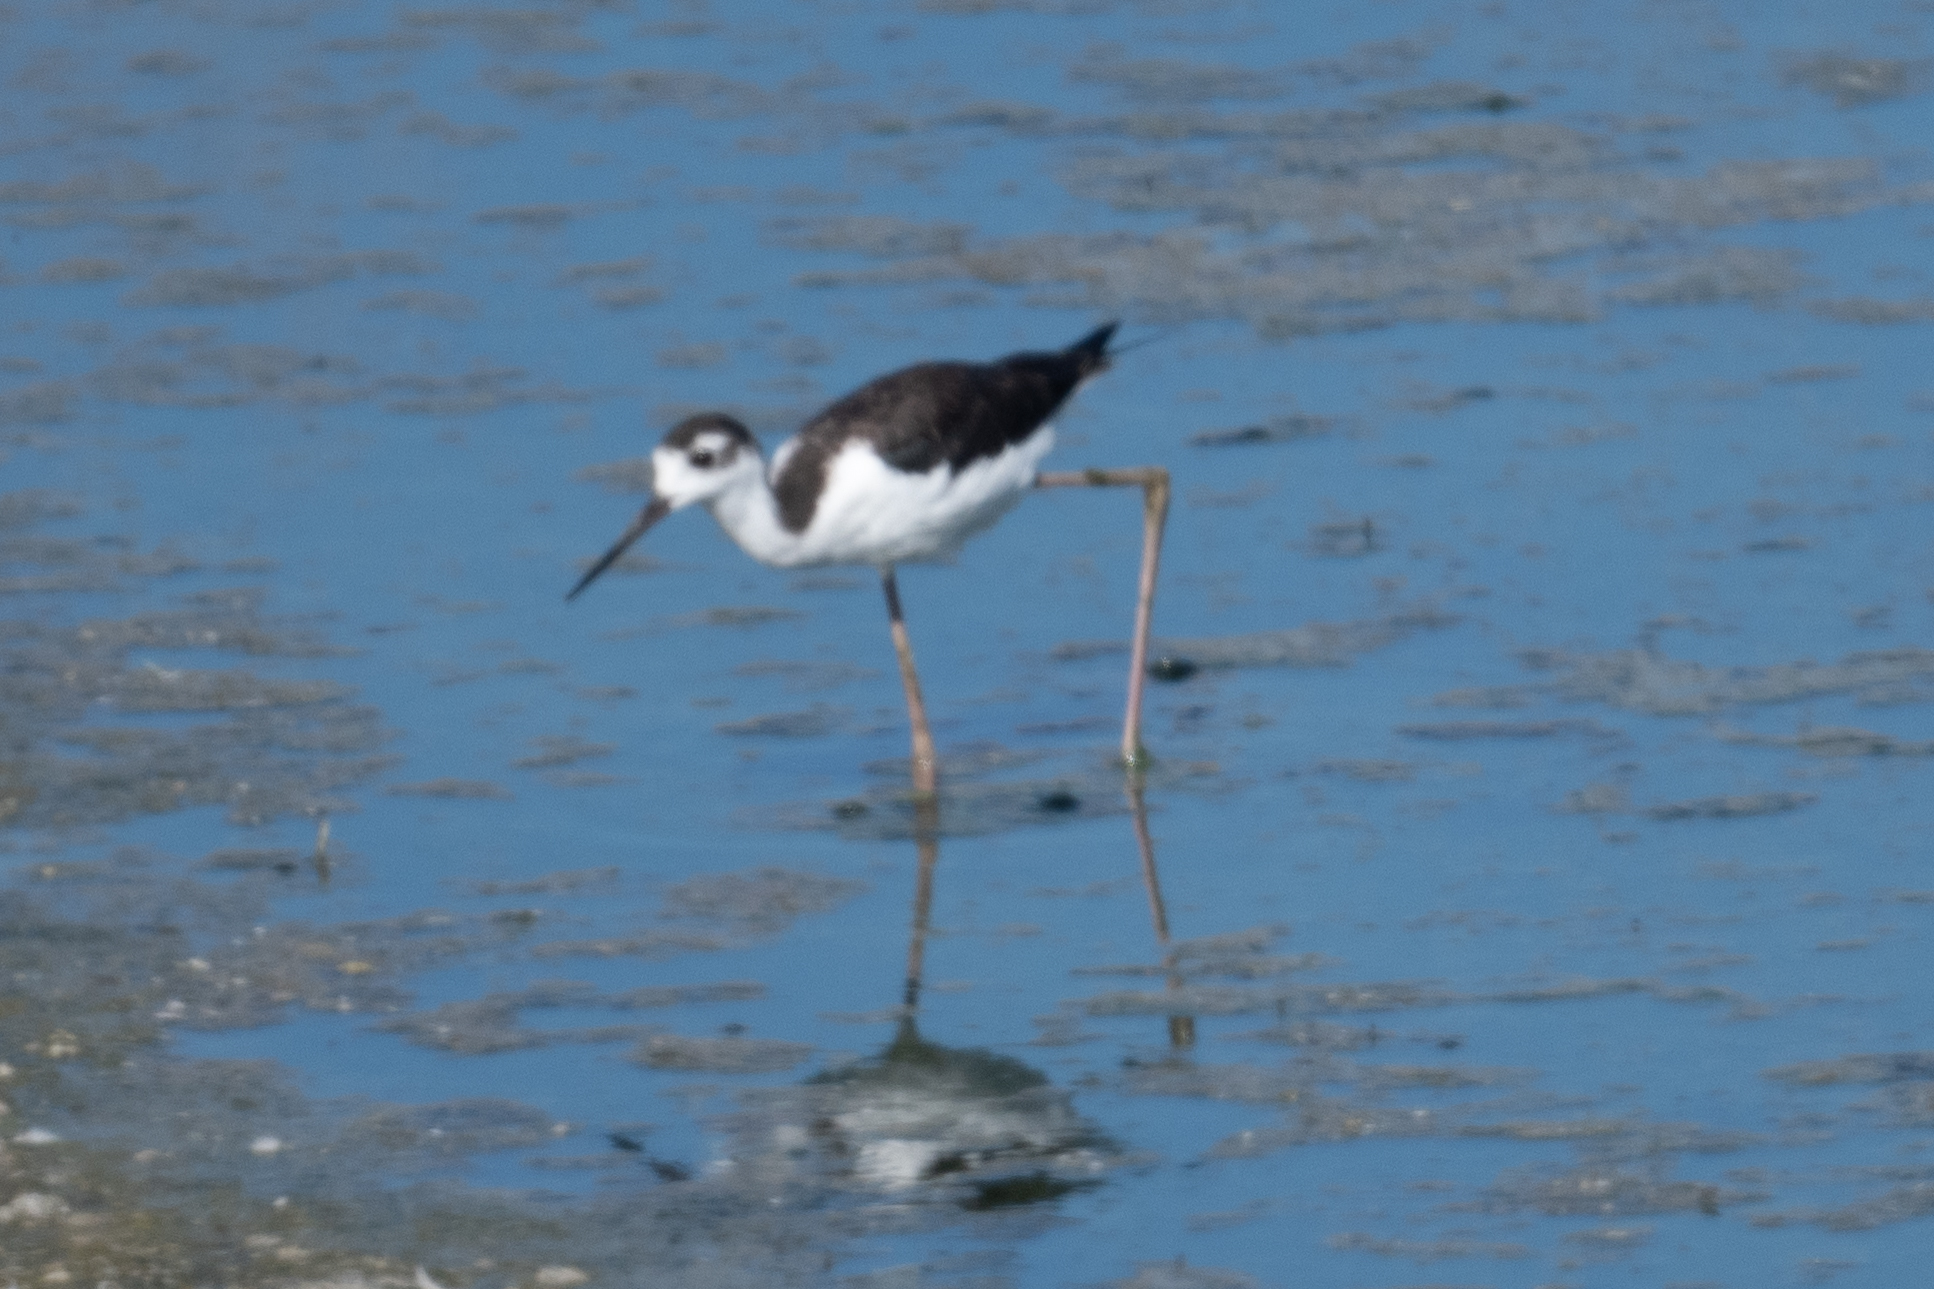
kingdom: Animalia
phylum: Chordata
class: Aves
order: Charadriiformes
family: Recurvirostridae
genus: Himantopus
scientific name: Himantopus mexicanus
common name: Black-necked stilt
